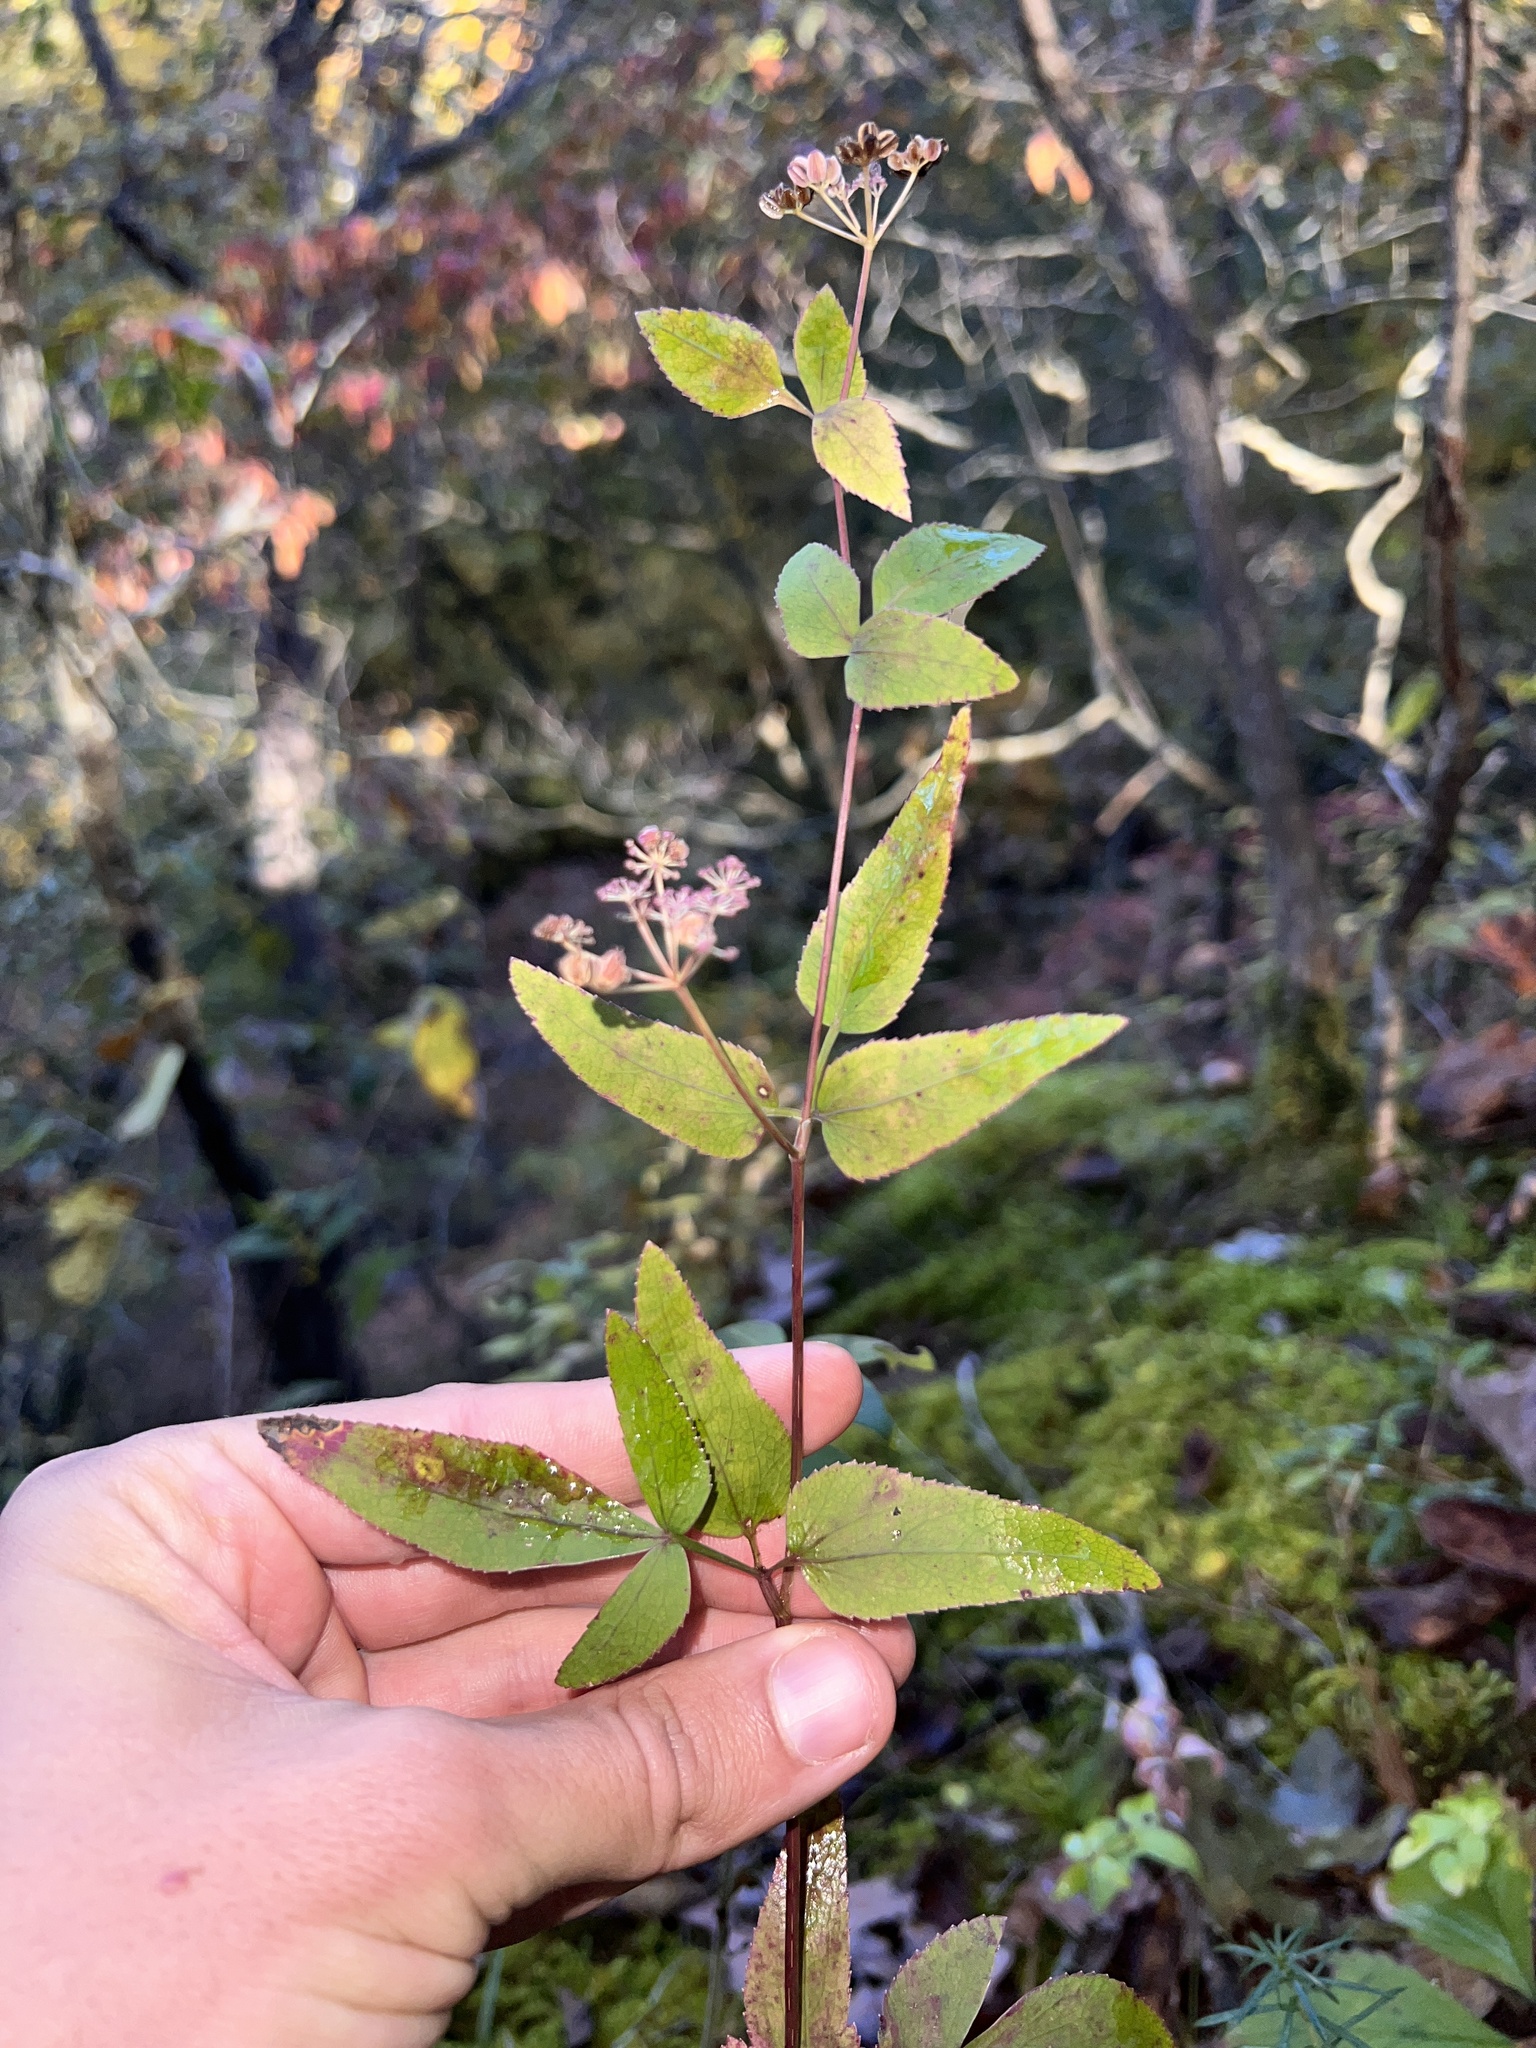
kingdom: Plantae
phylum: Tracheophyta
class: Magnoliopsida
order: Apiales
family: Apiaceae
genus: Thaspium
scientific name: Thaspium trifoliatum
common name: Purple meadow-parsnip
